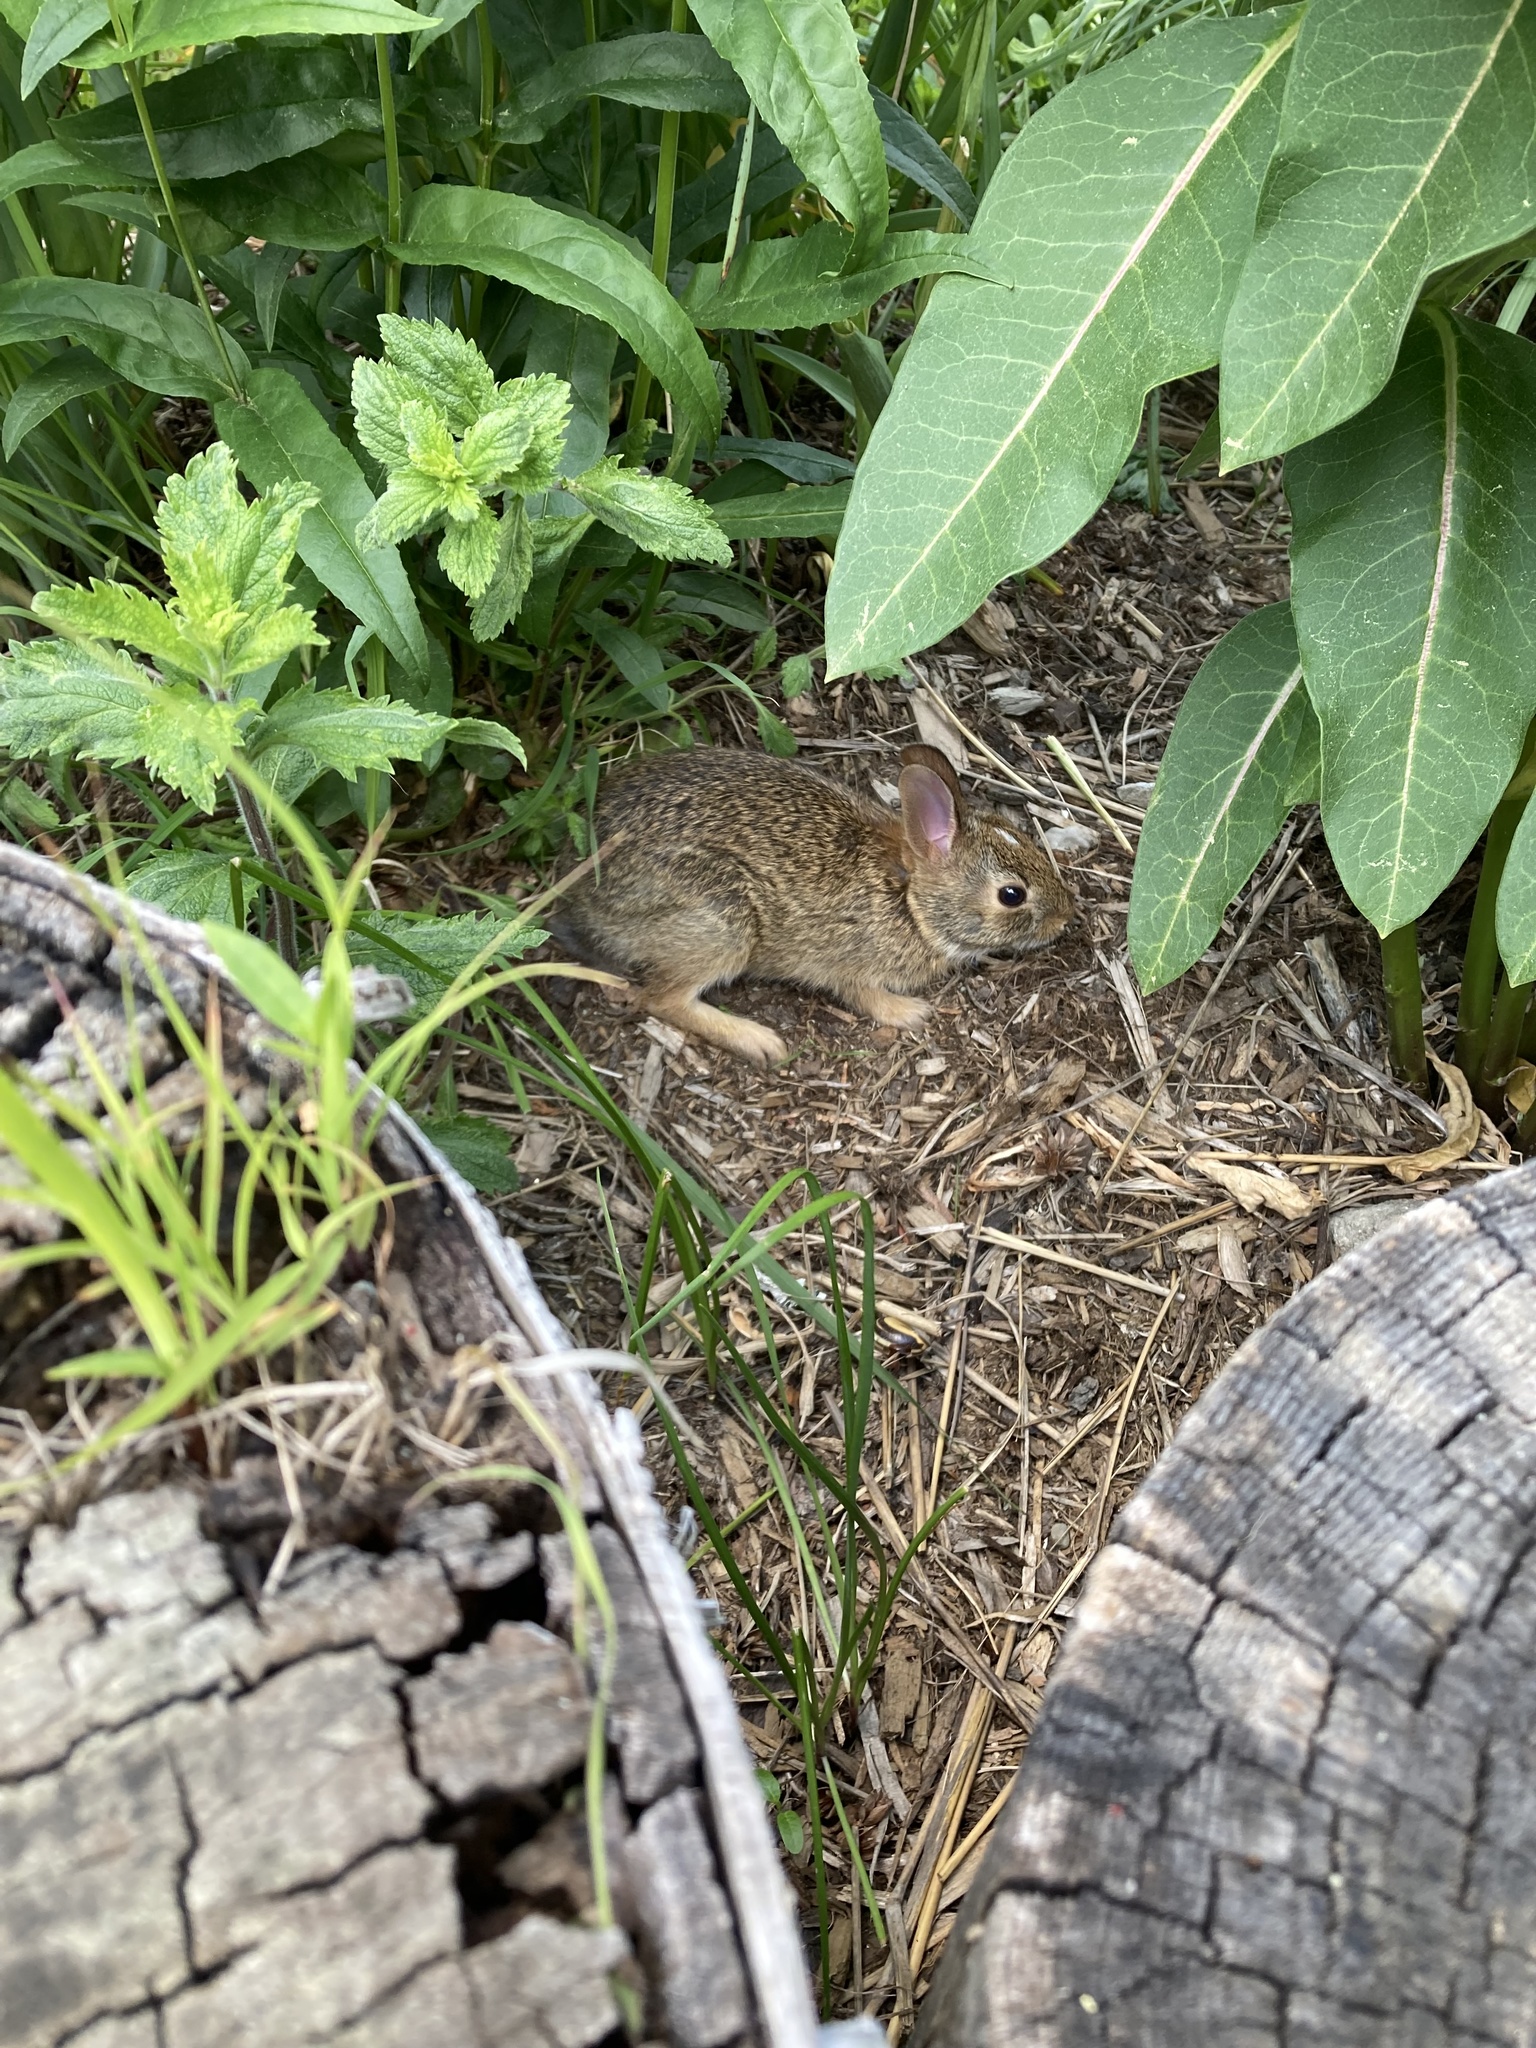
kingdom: Animalia
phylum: Chordata
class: Mammalia
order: Lagomorpha
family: Leporidae
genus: Sylvilagus
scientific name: Sylvilagus floridanus
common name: Eastern cottontail
